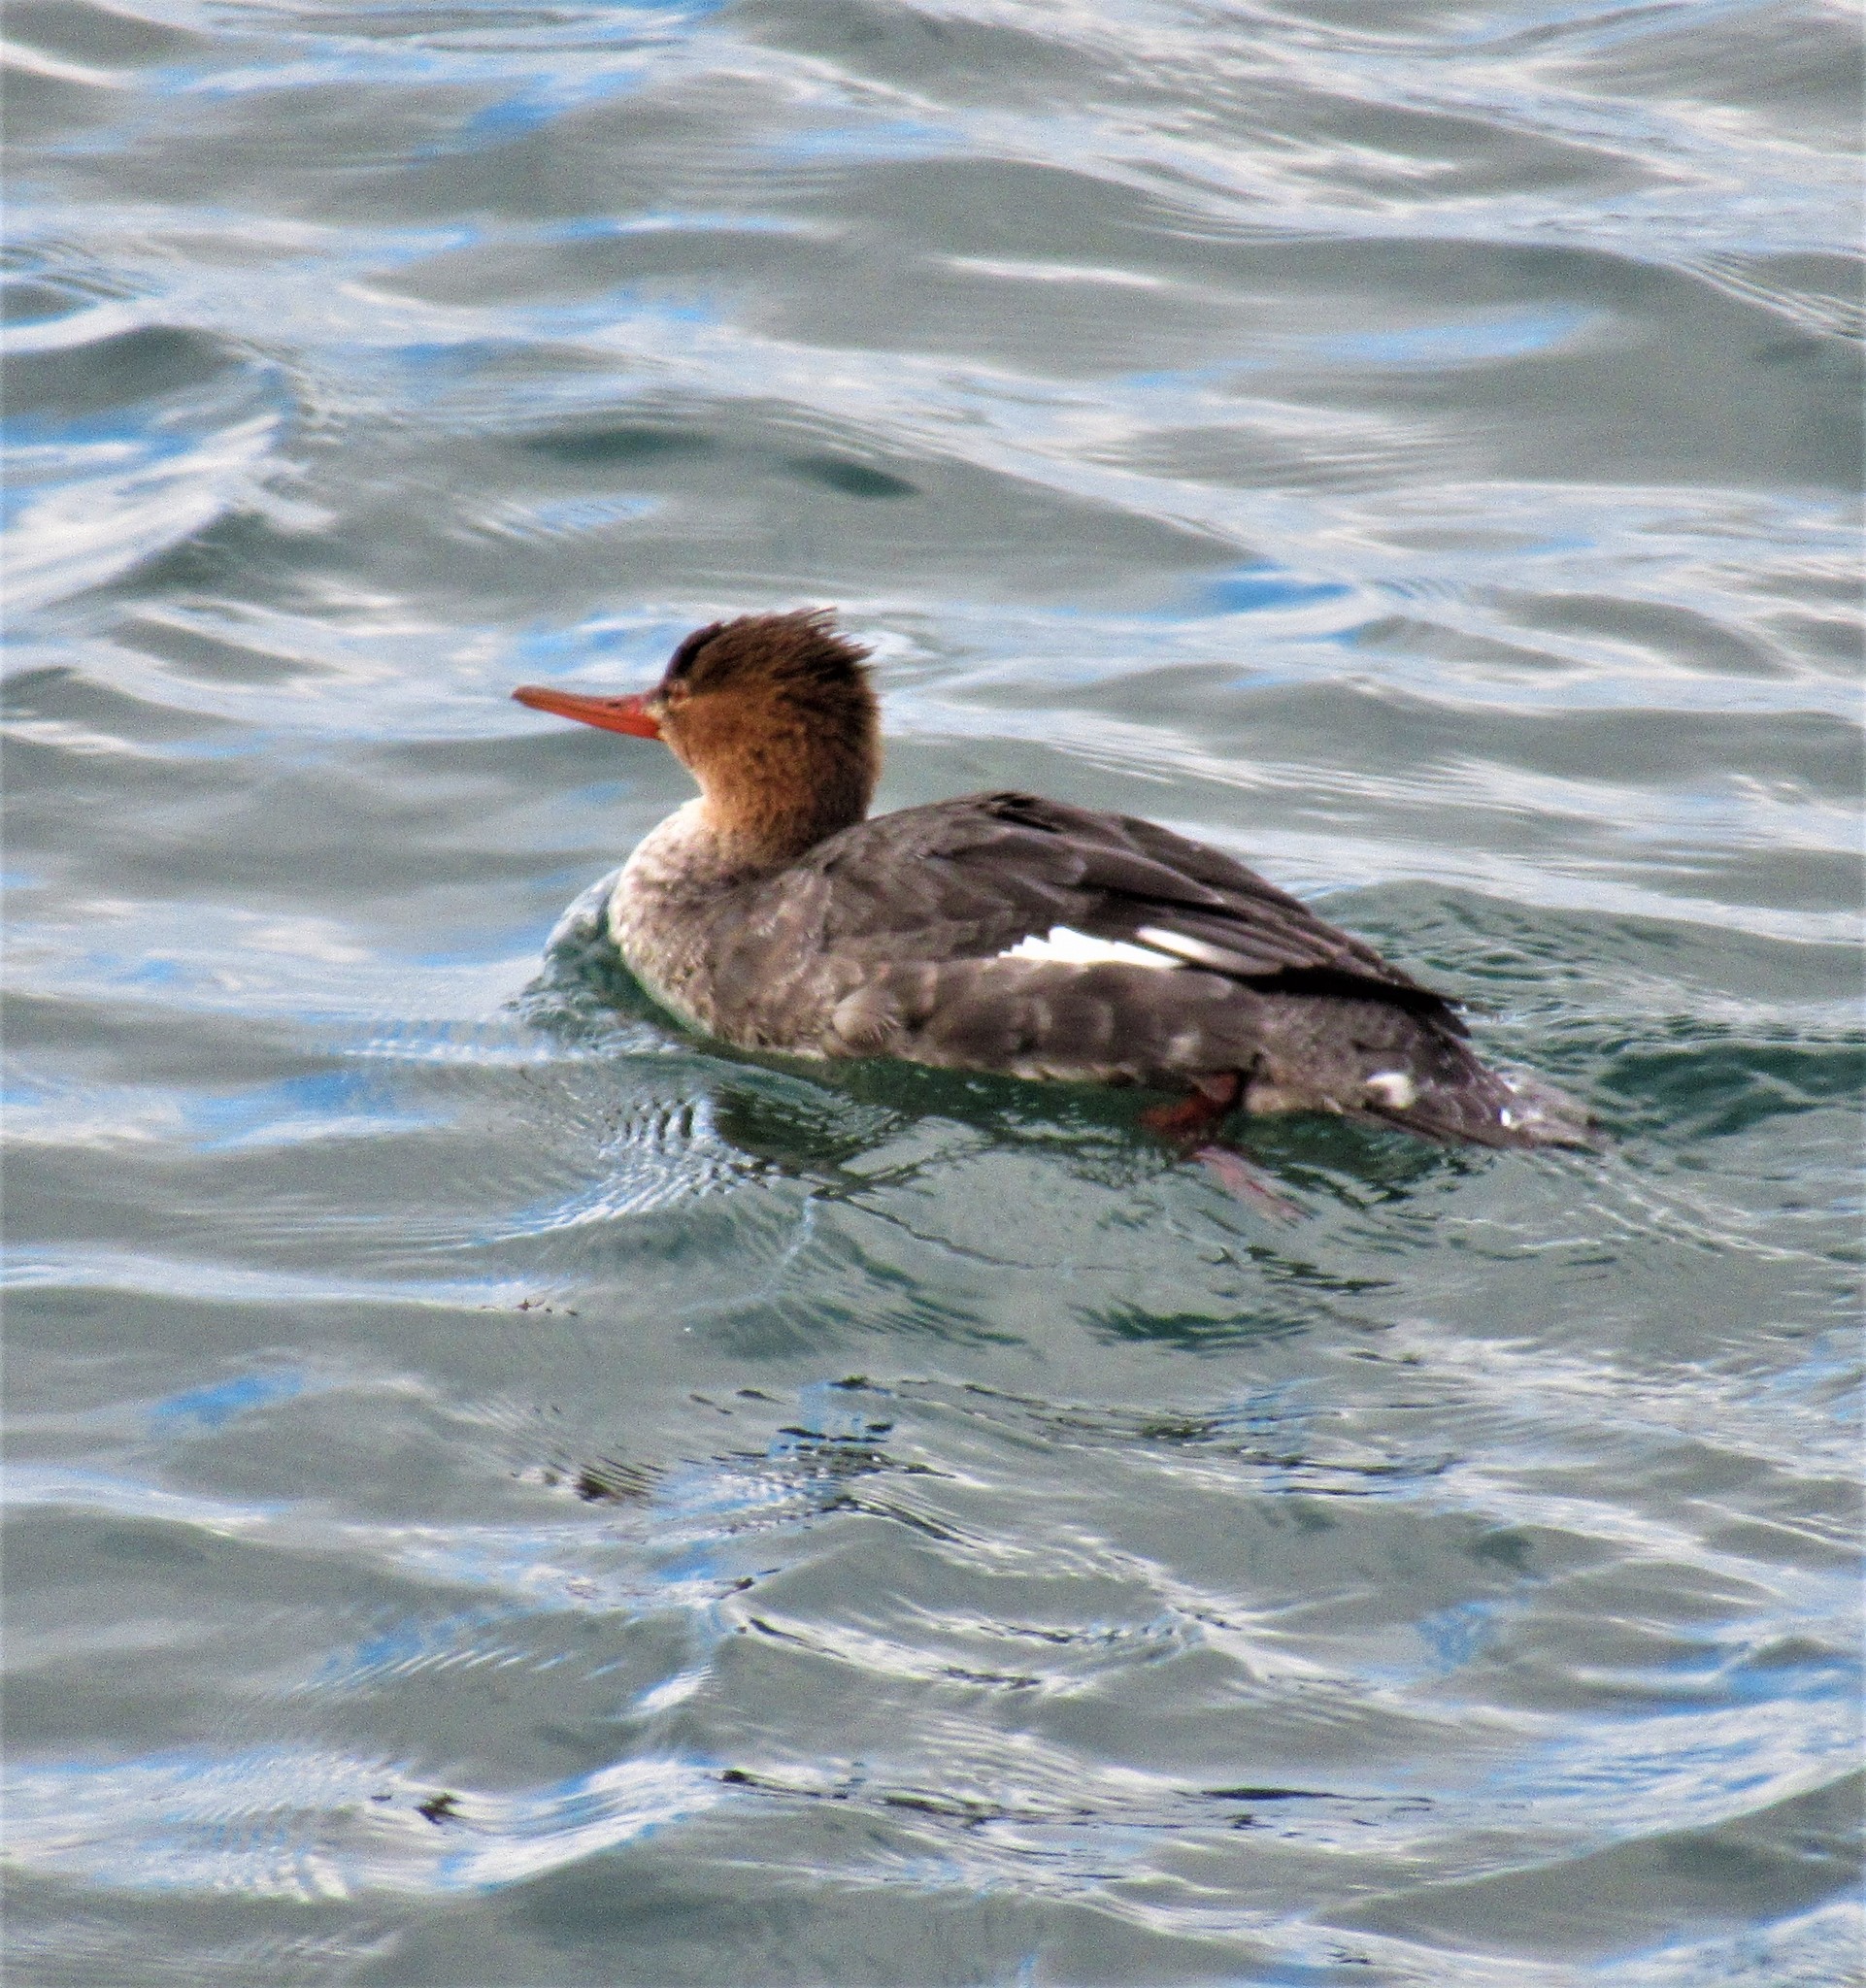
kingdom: Animalia
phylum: Chordata
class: Aves
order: Anseriformes
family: Anatidae
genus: Mergus
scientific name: Mergus serrator
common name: Red-breasted merganser
